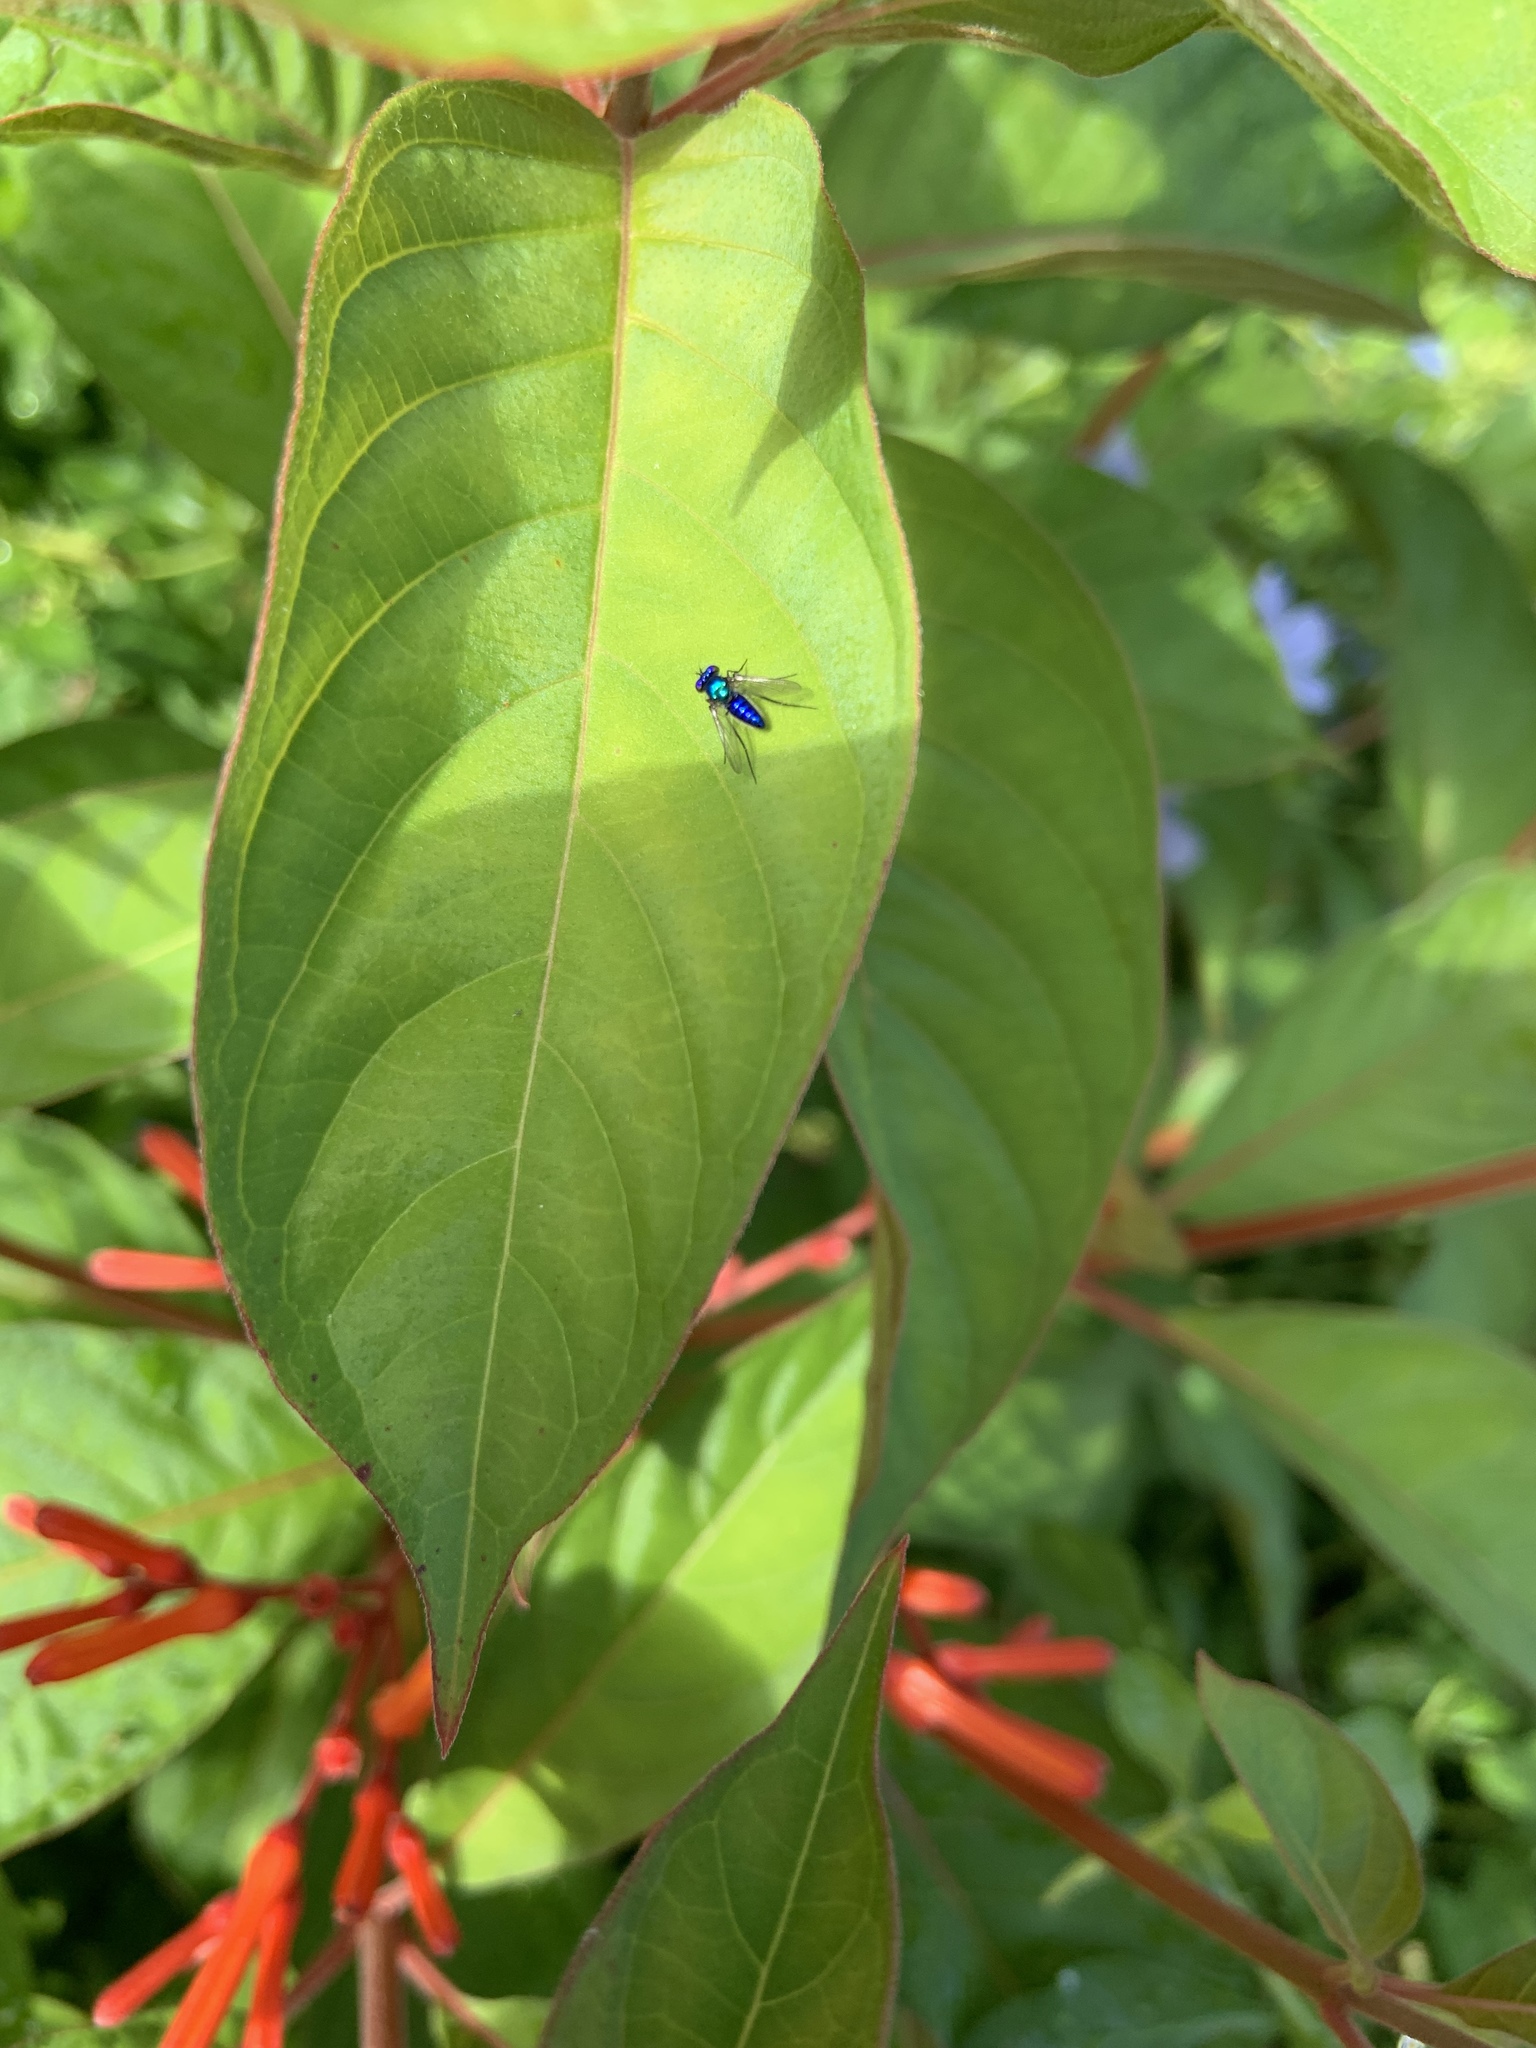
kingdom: Animalia
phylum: Arthropoda
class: Insecta
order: Diptera
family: Dolichopodidae
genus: Condylostylus
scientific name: Condylostylus mundus
